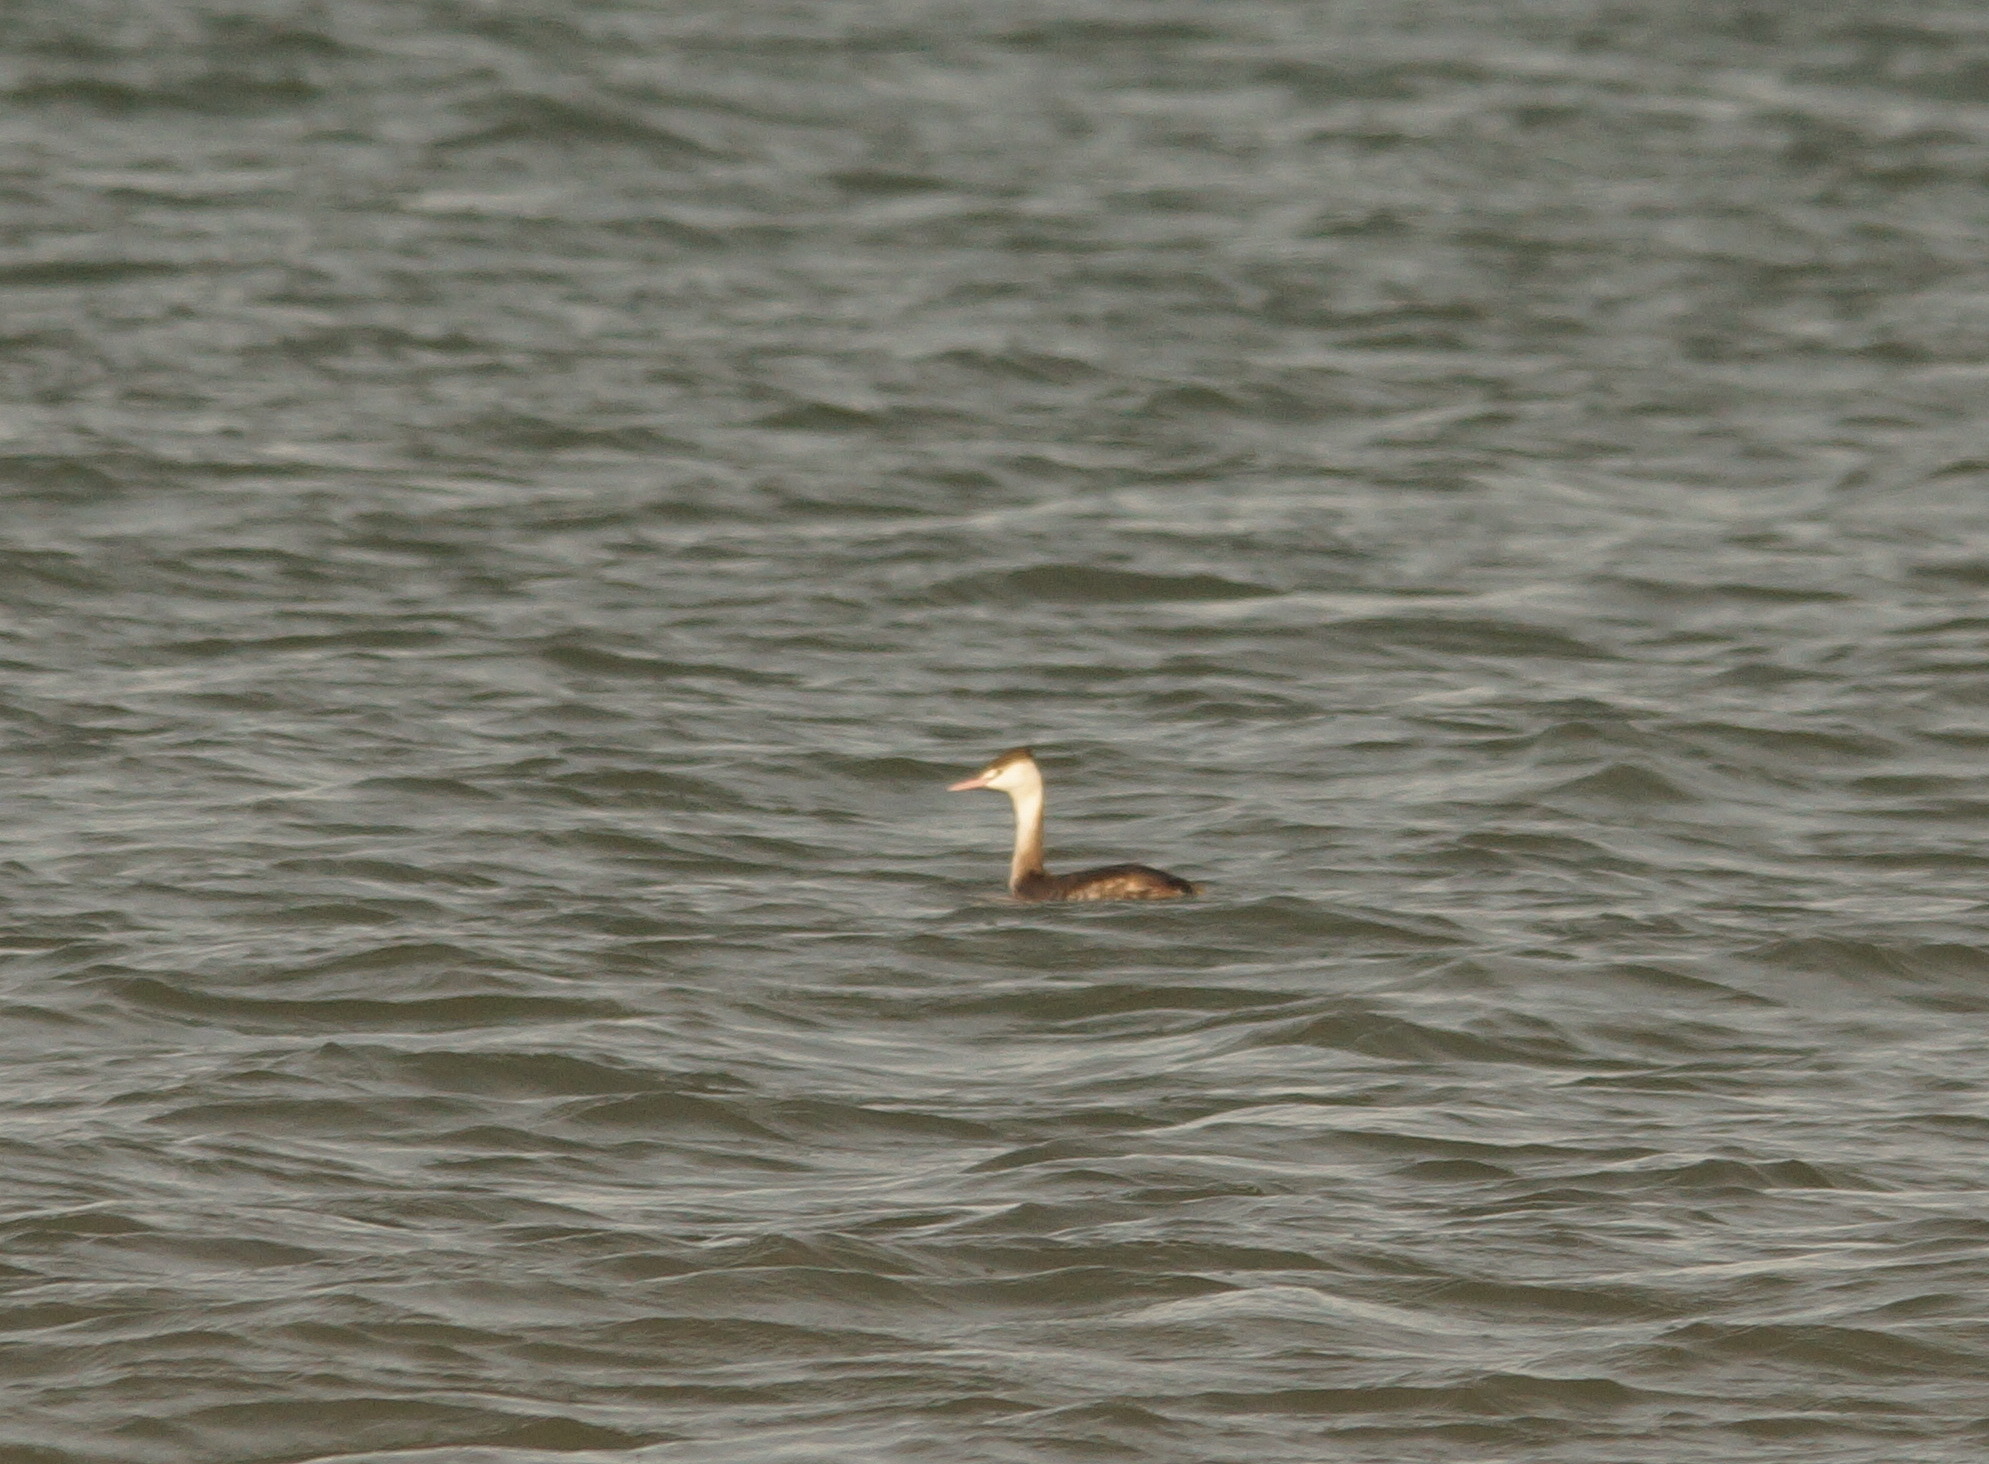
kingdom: Animalia
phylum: Chordata
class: Aves
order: Podicipediformes
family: Podicipedidae
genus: Podiceps
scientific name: Podiceps cristatus
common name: Great crested grebe
